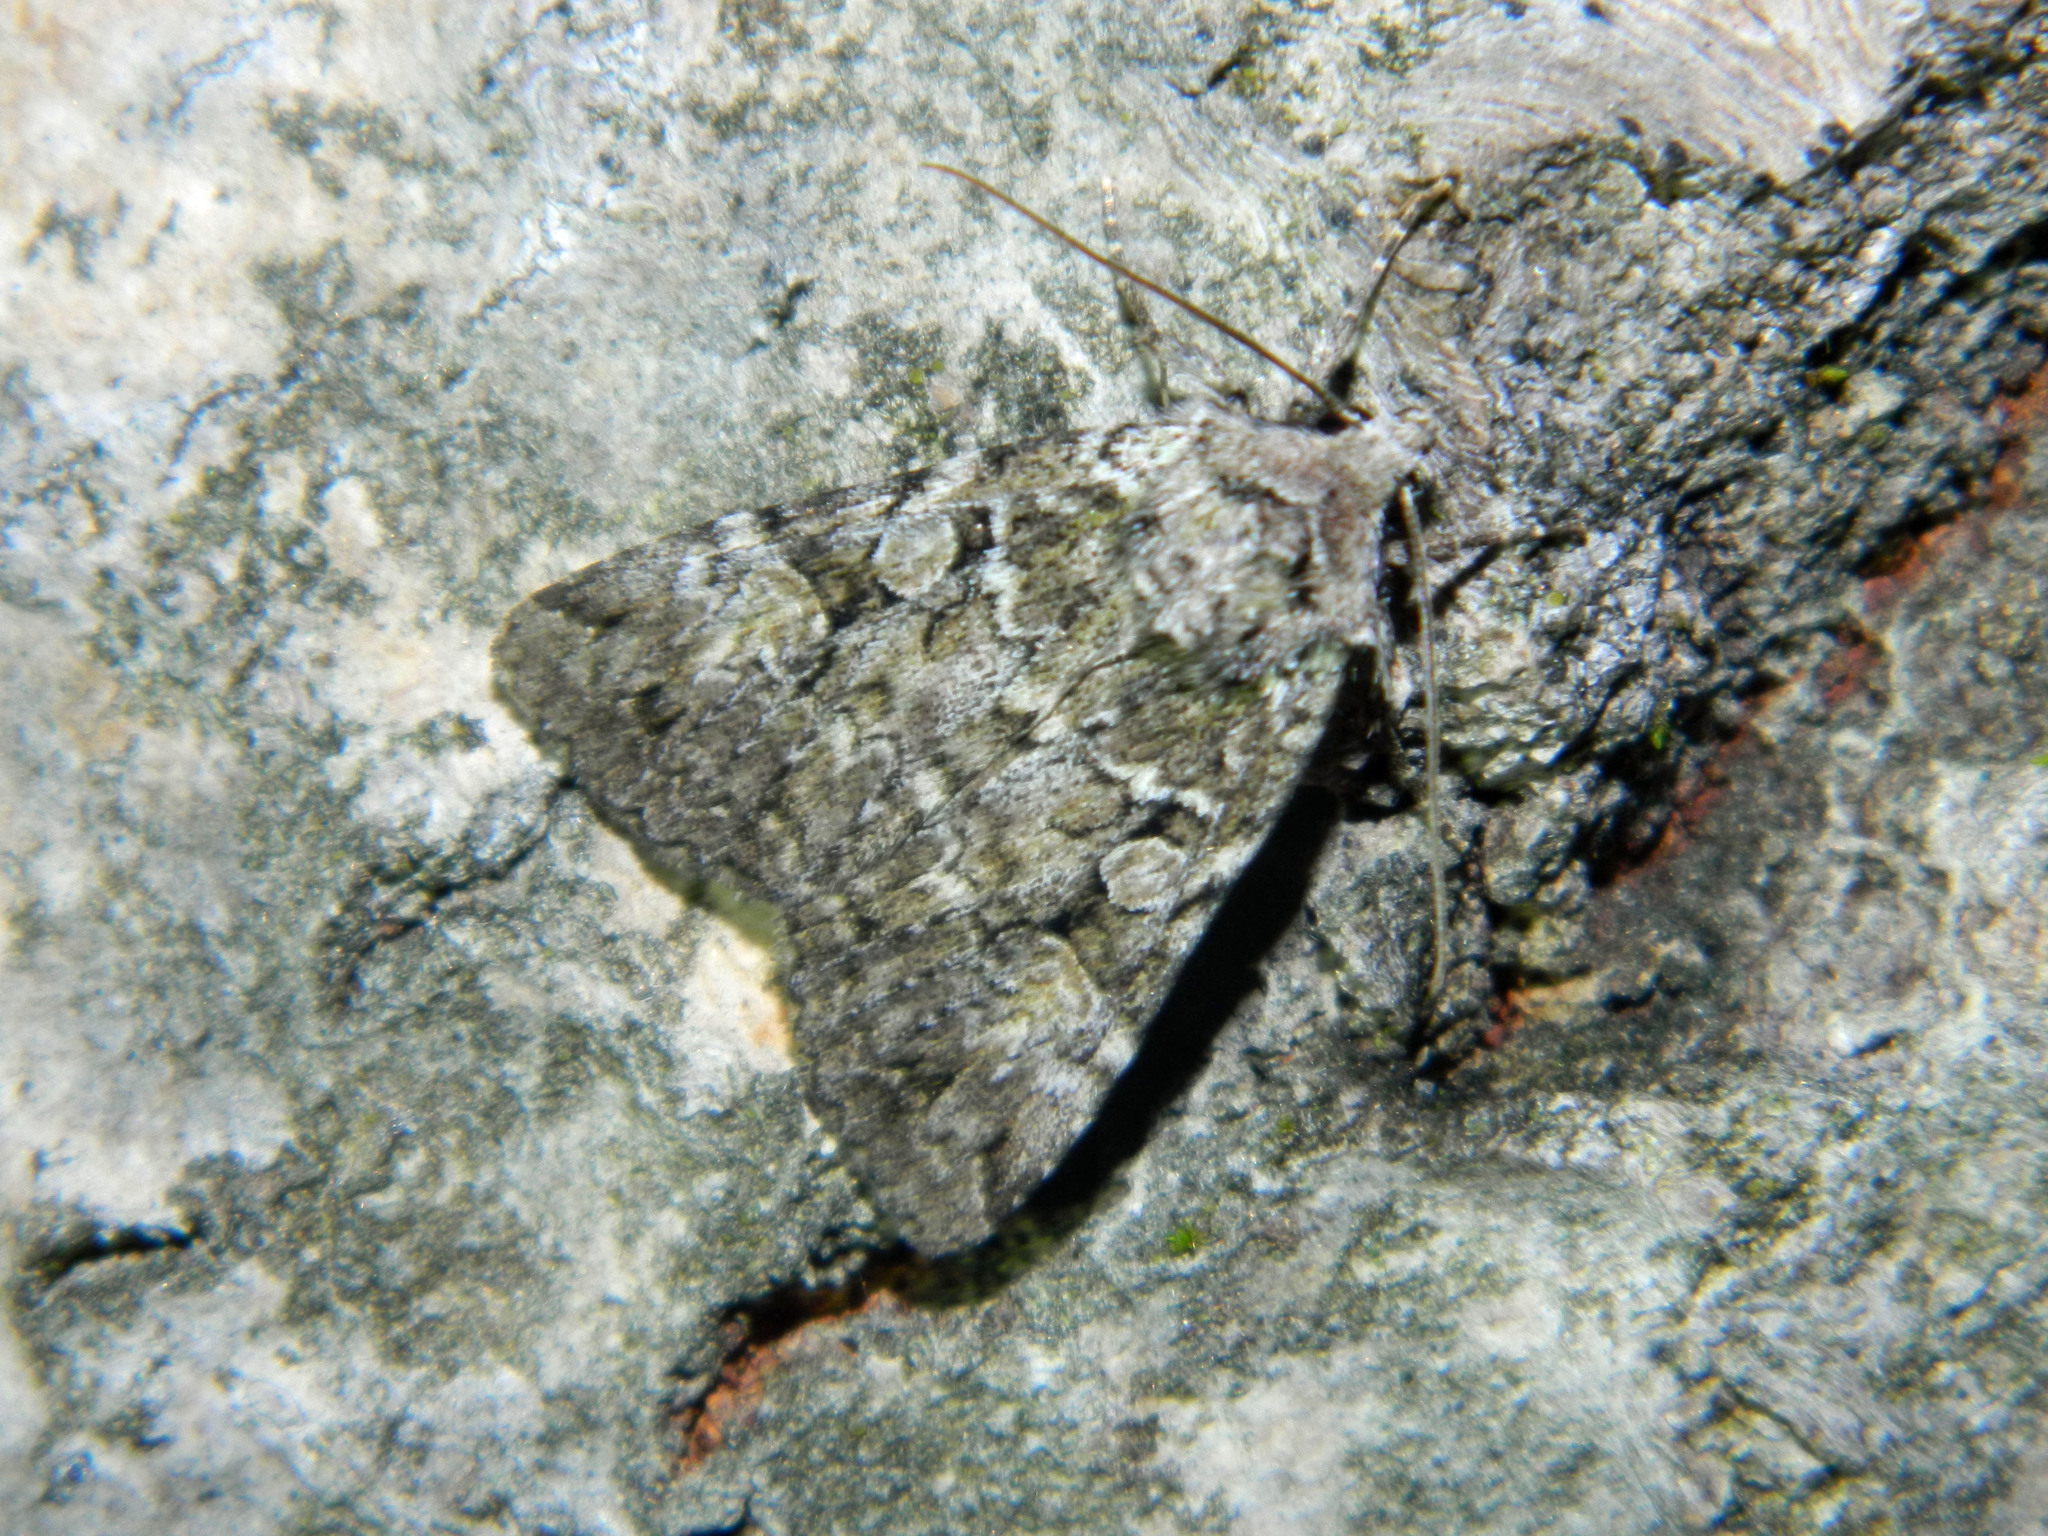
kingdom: Animalia
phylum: Arthropoda
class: Insecta
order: Lepidoptera
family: Noctuidae
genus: Anaplectoides
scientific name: Anaplectoides pressus
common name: Dappled dart
